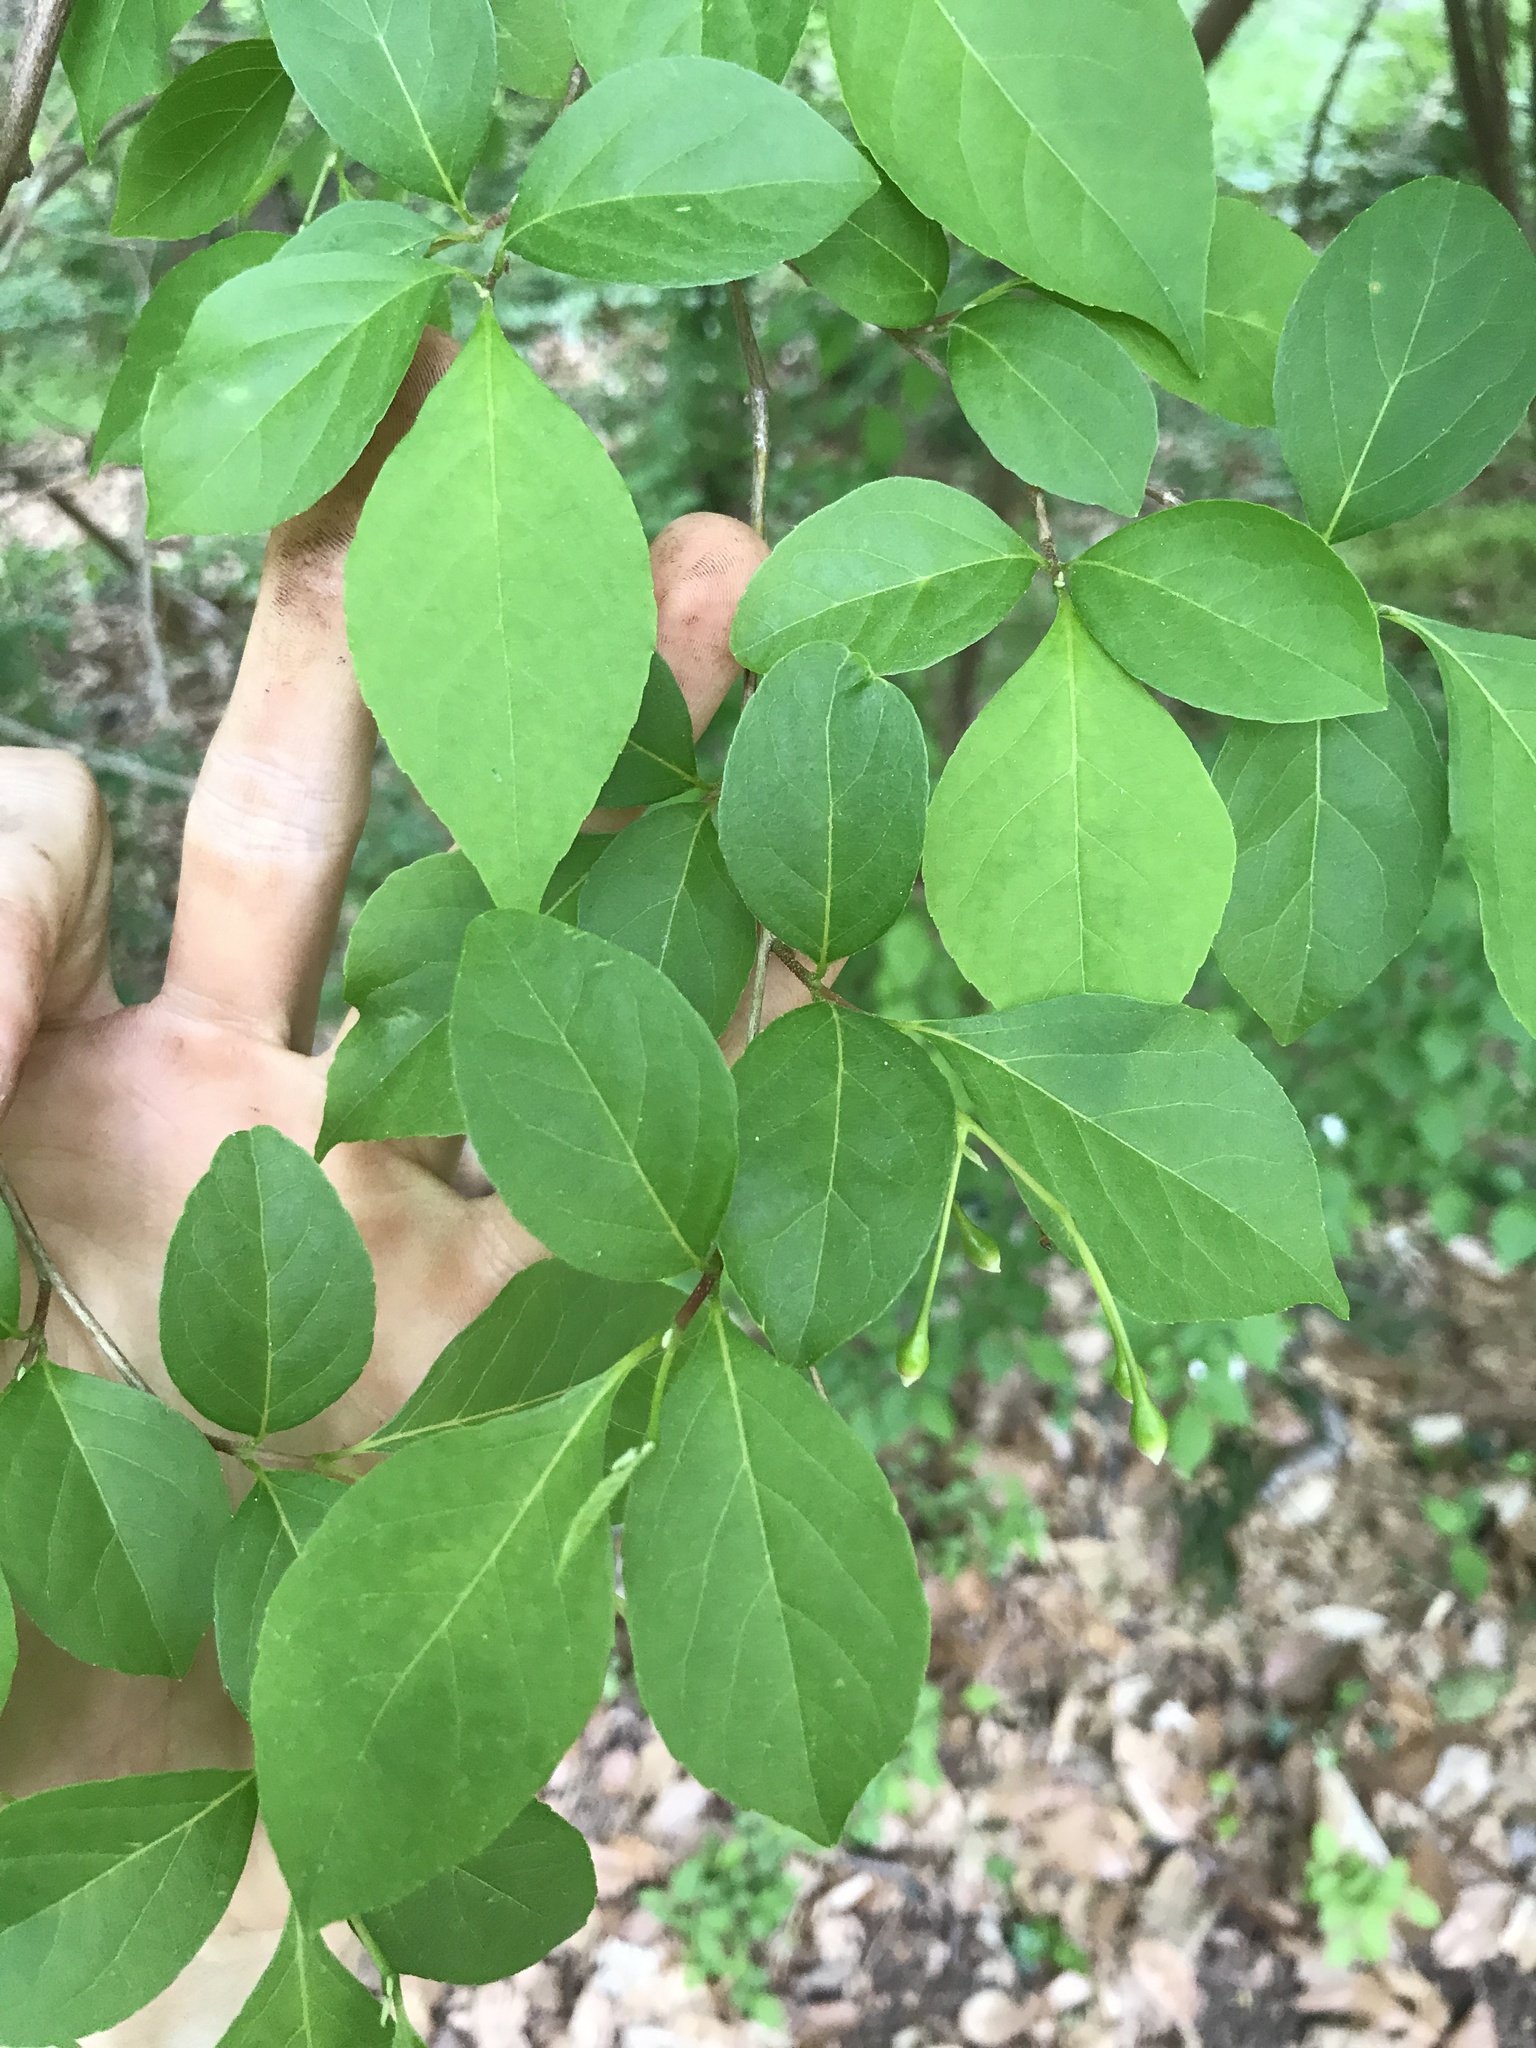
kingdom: Plantae
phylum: Tracheophyta
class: Magnoliopsida
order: Ericales
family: Styracaceae
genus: Styrax
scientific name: Styrax japonicus
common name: Japanese snowbell
